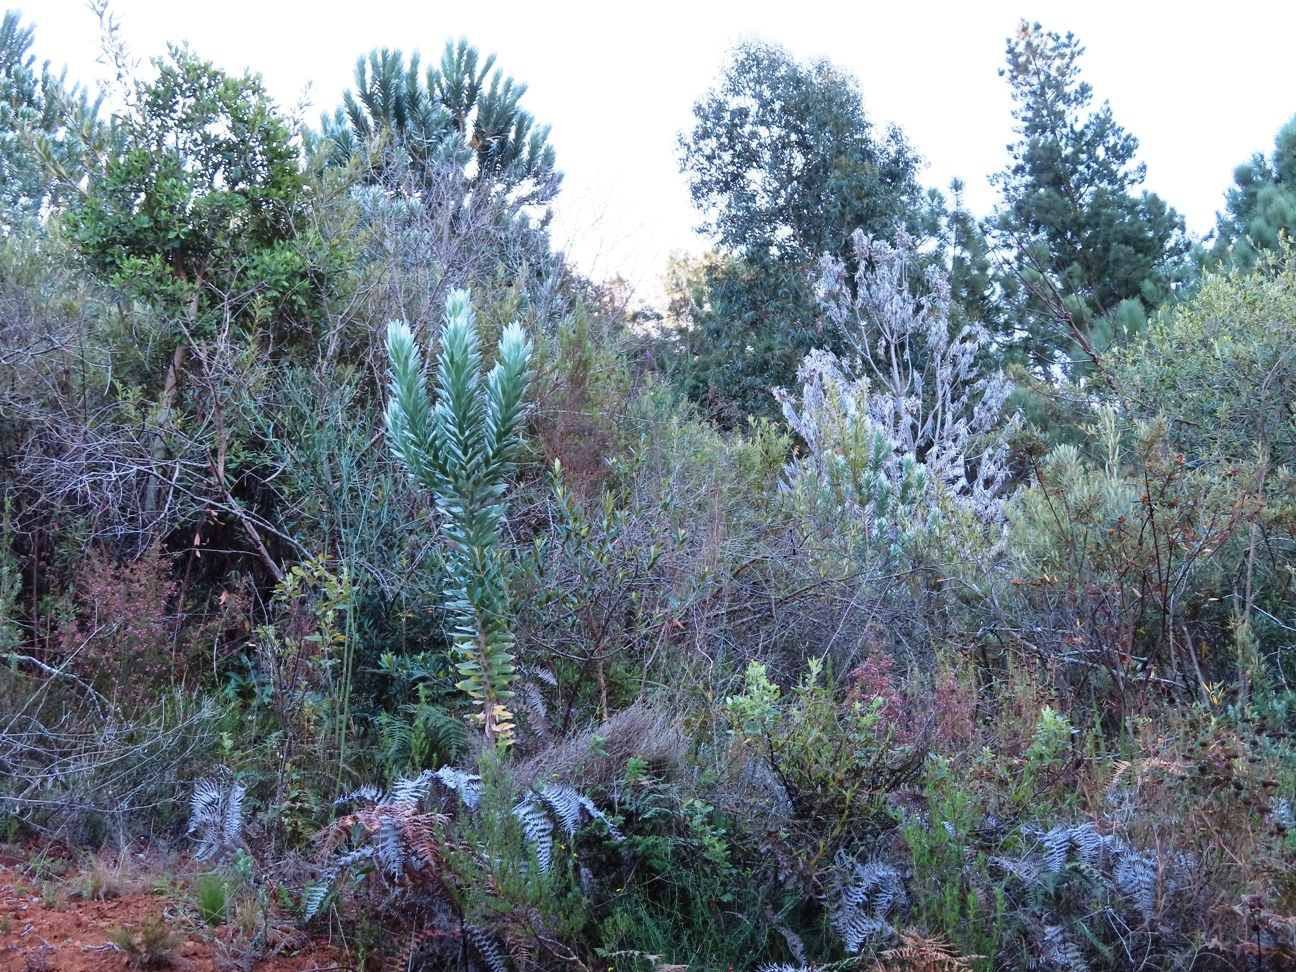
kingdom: Plantae
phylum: Tracheophyta
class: Magnoliopsida
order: Proteales
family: Proteaceae
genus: Leucadendron
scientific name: Leucadendron argenteum
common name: Cape silver tree
